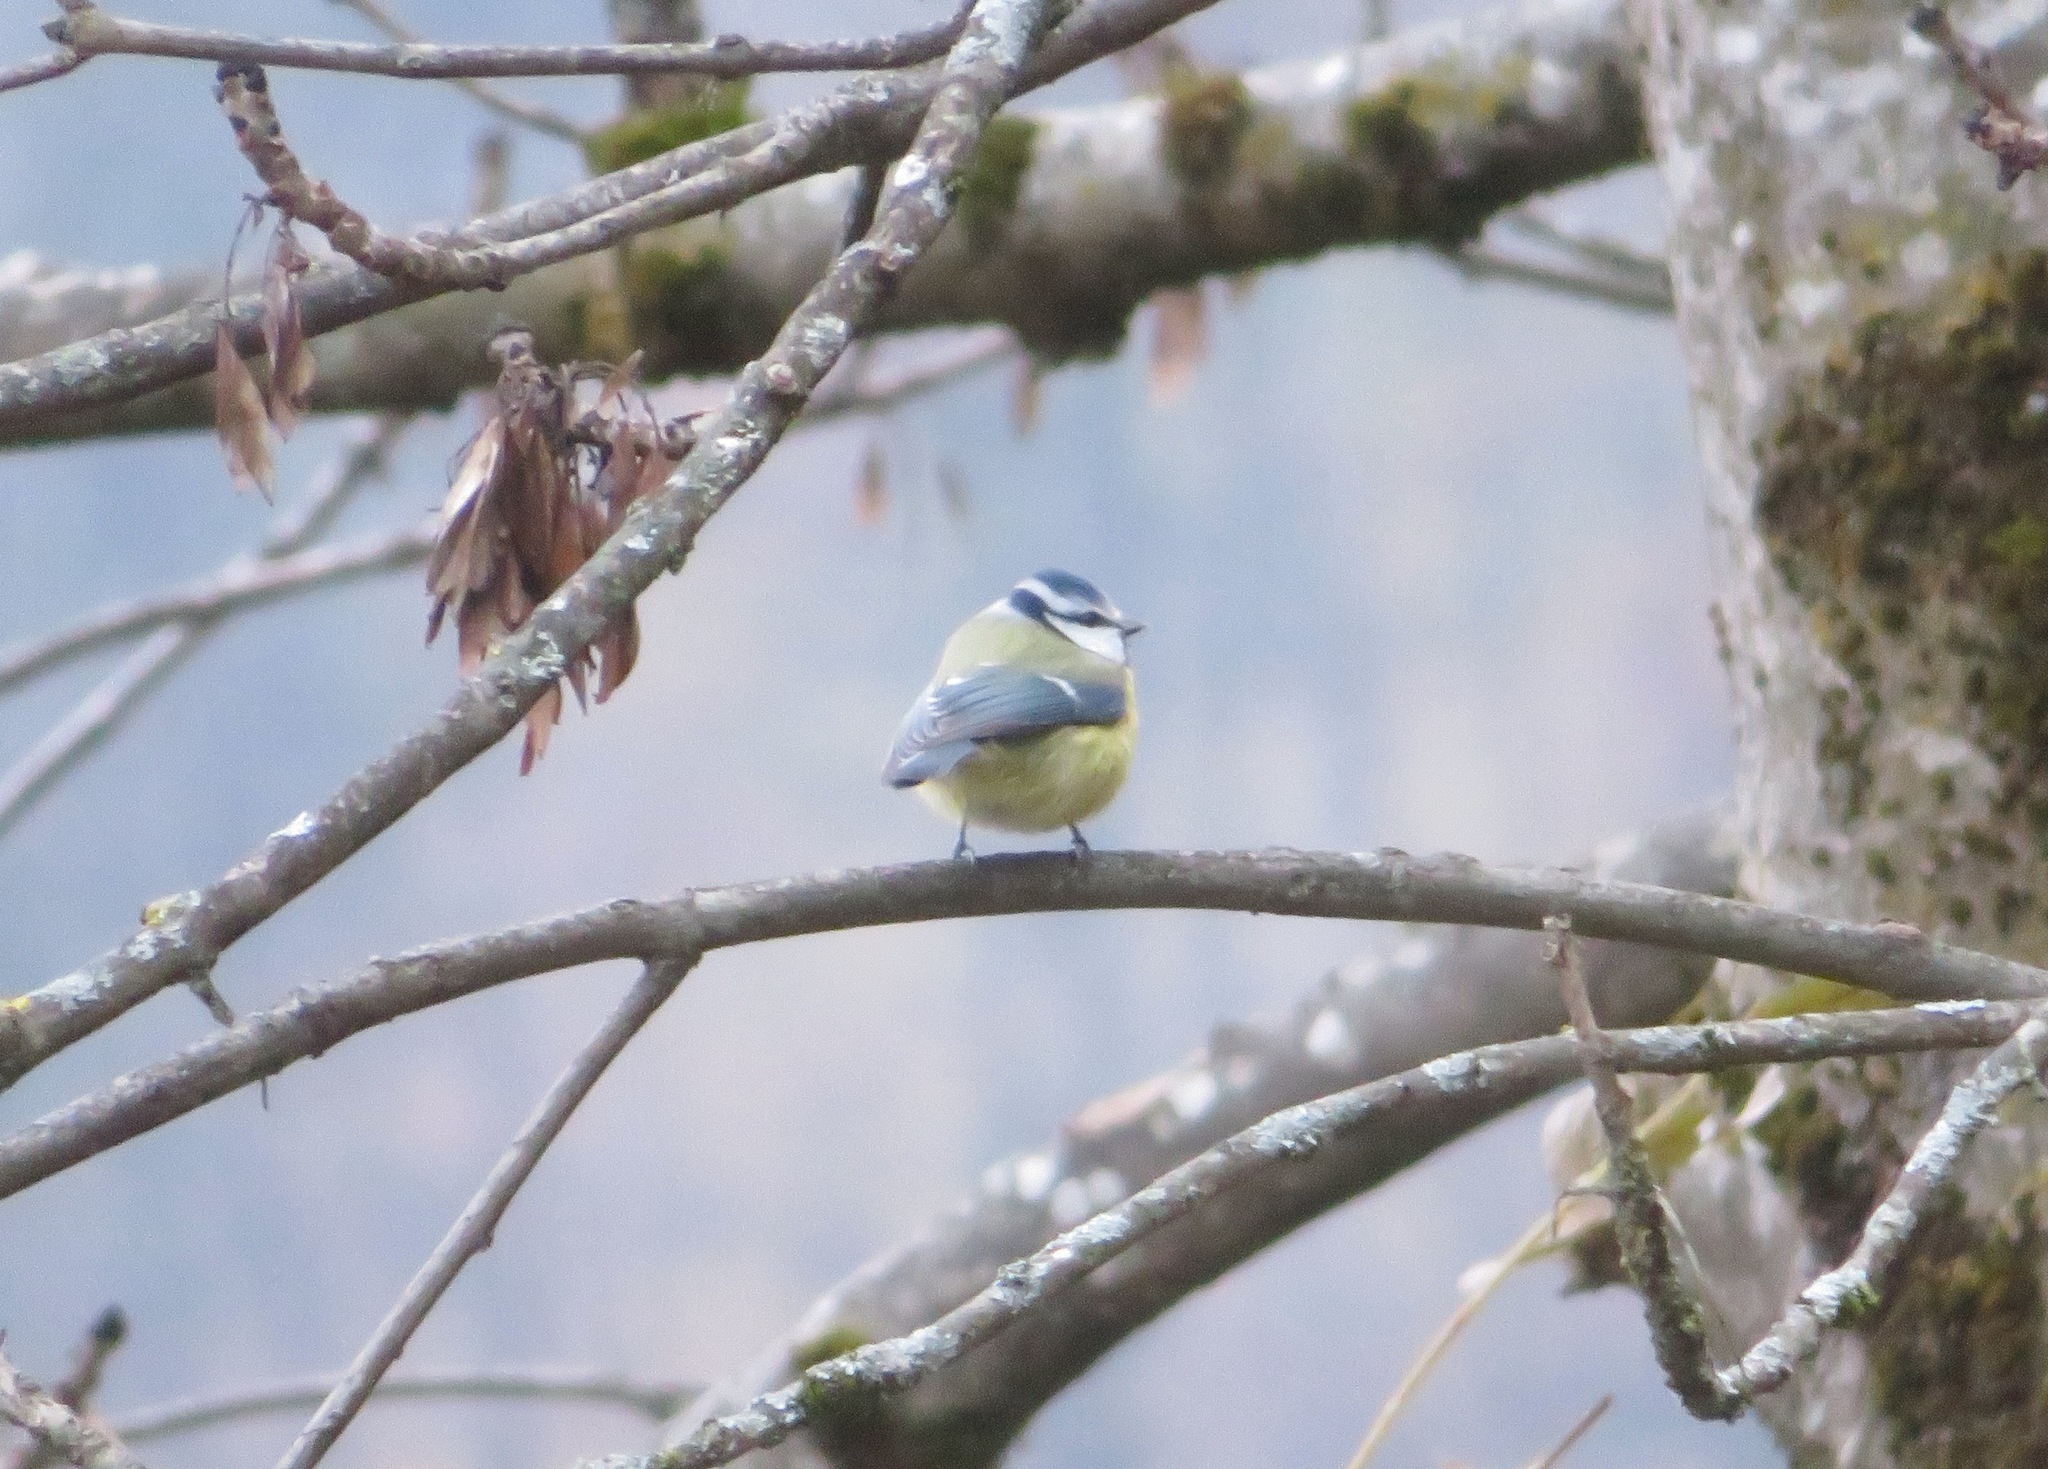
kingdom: Animalia
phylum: Chordata
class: Aves
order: Passeriformes
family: Paridae
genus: Cyanistes
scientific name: Cyanistes caeruleus
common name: Eurasian blue tit
